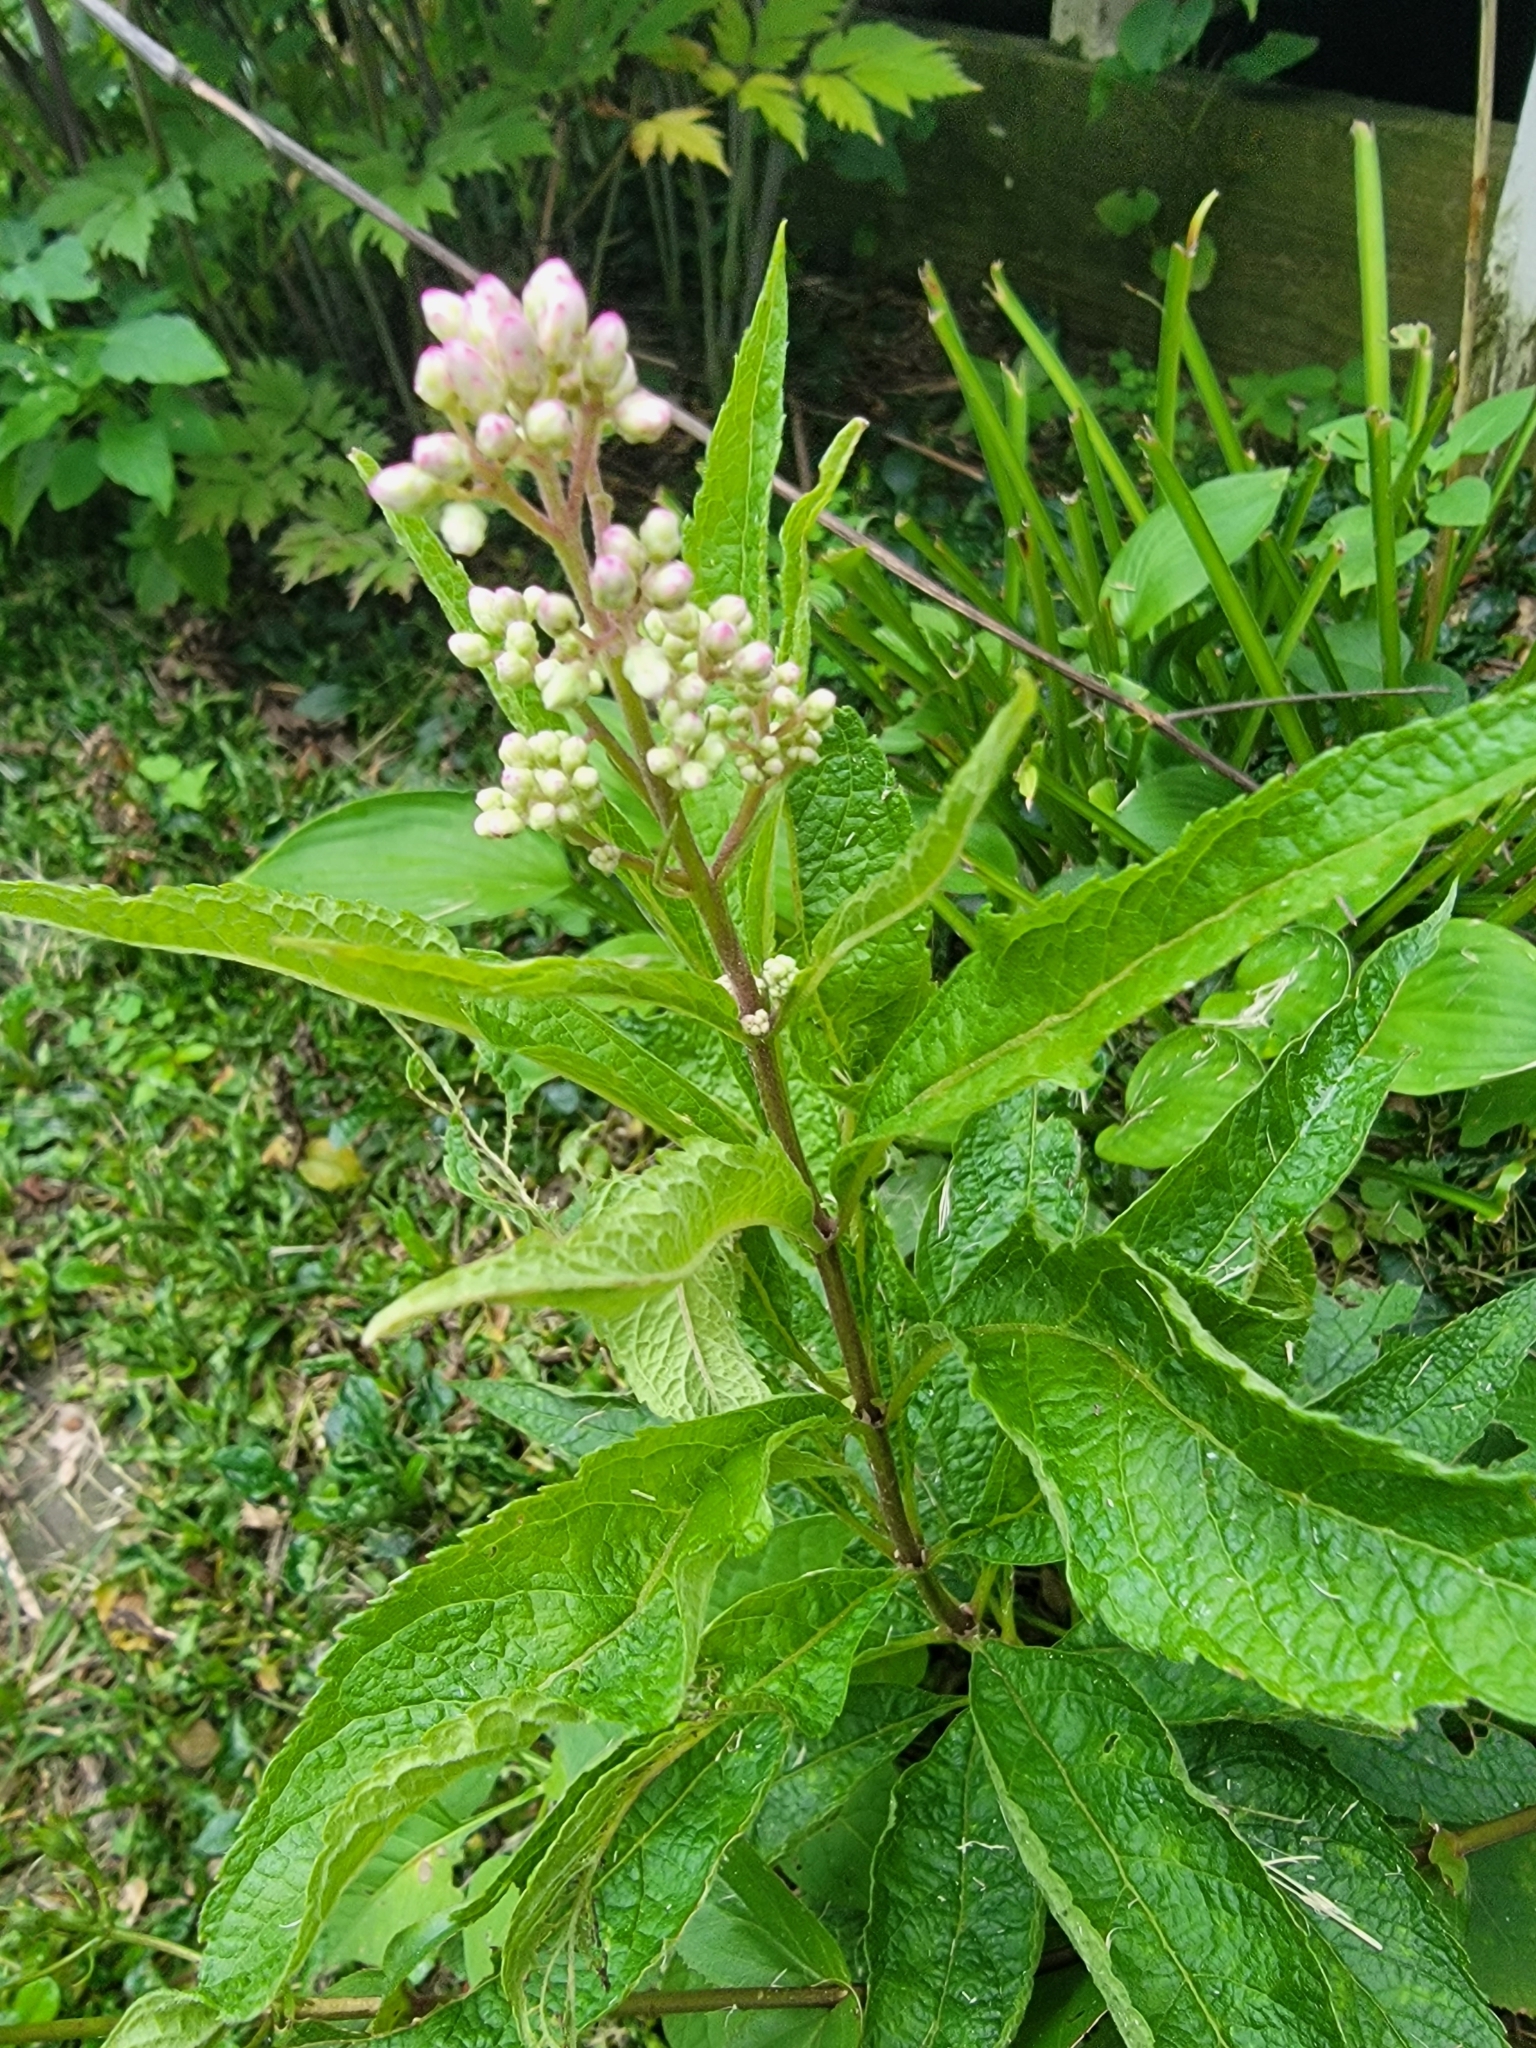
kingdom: Plantae
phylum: Tracheophyta
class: Magnoliopsida
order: Asterales
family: Asteraceae
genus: Eutrochium
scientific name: Eutrochium maculatum
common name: Spotted joe pye weed
